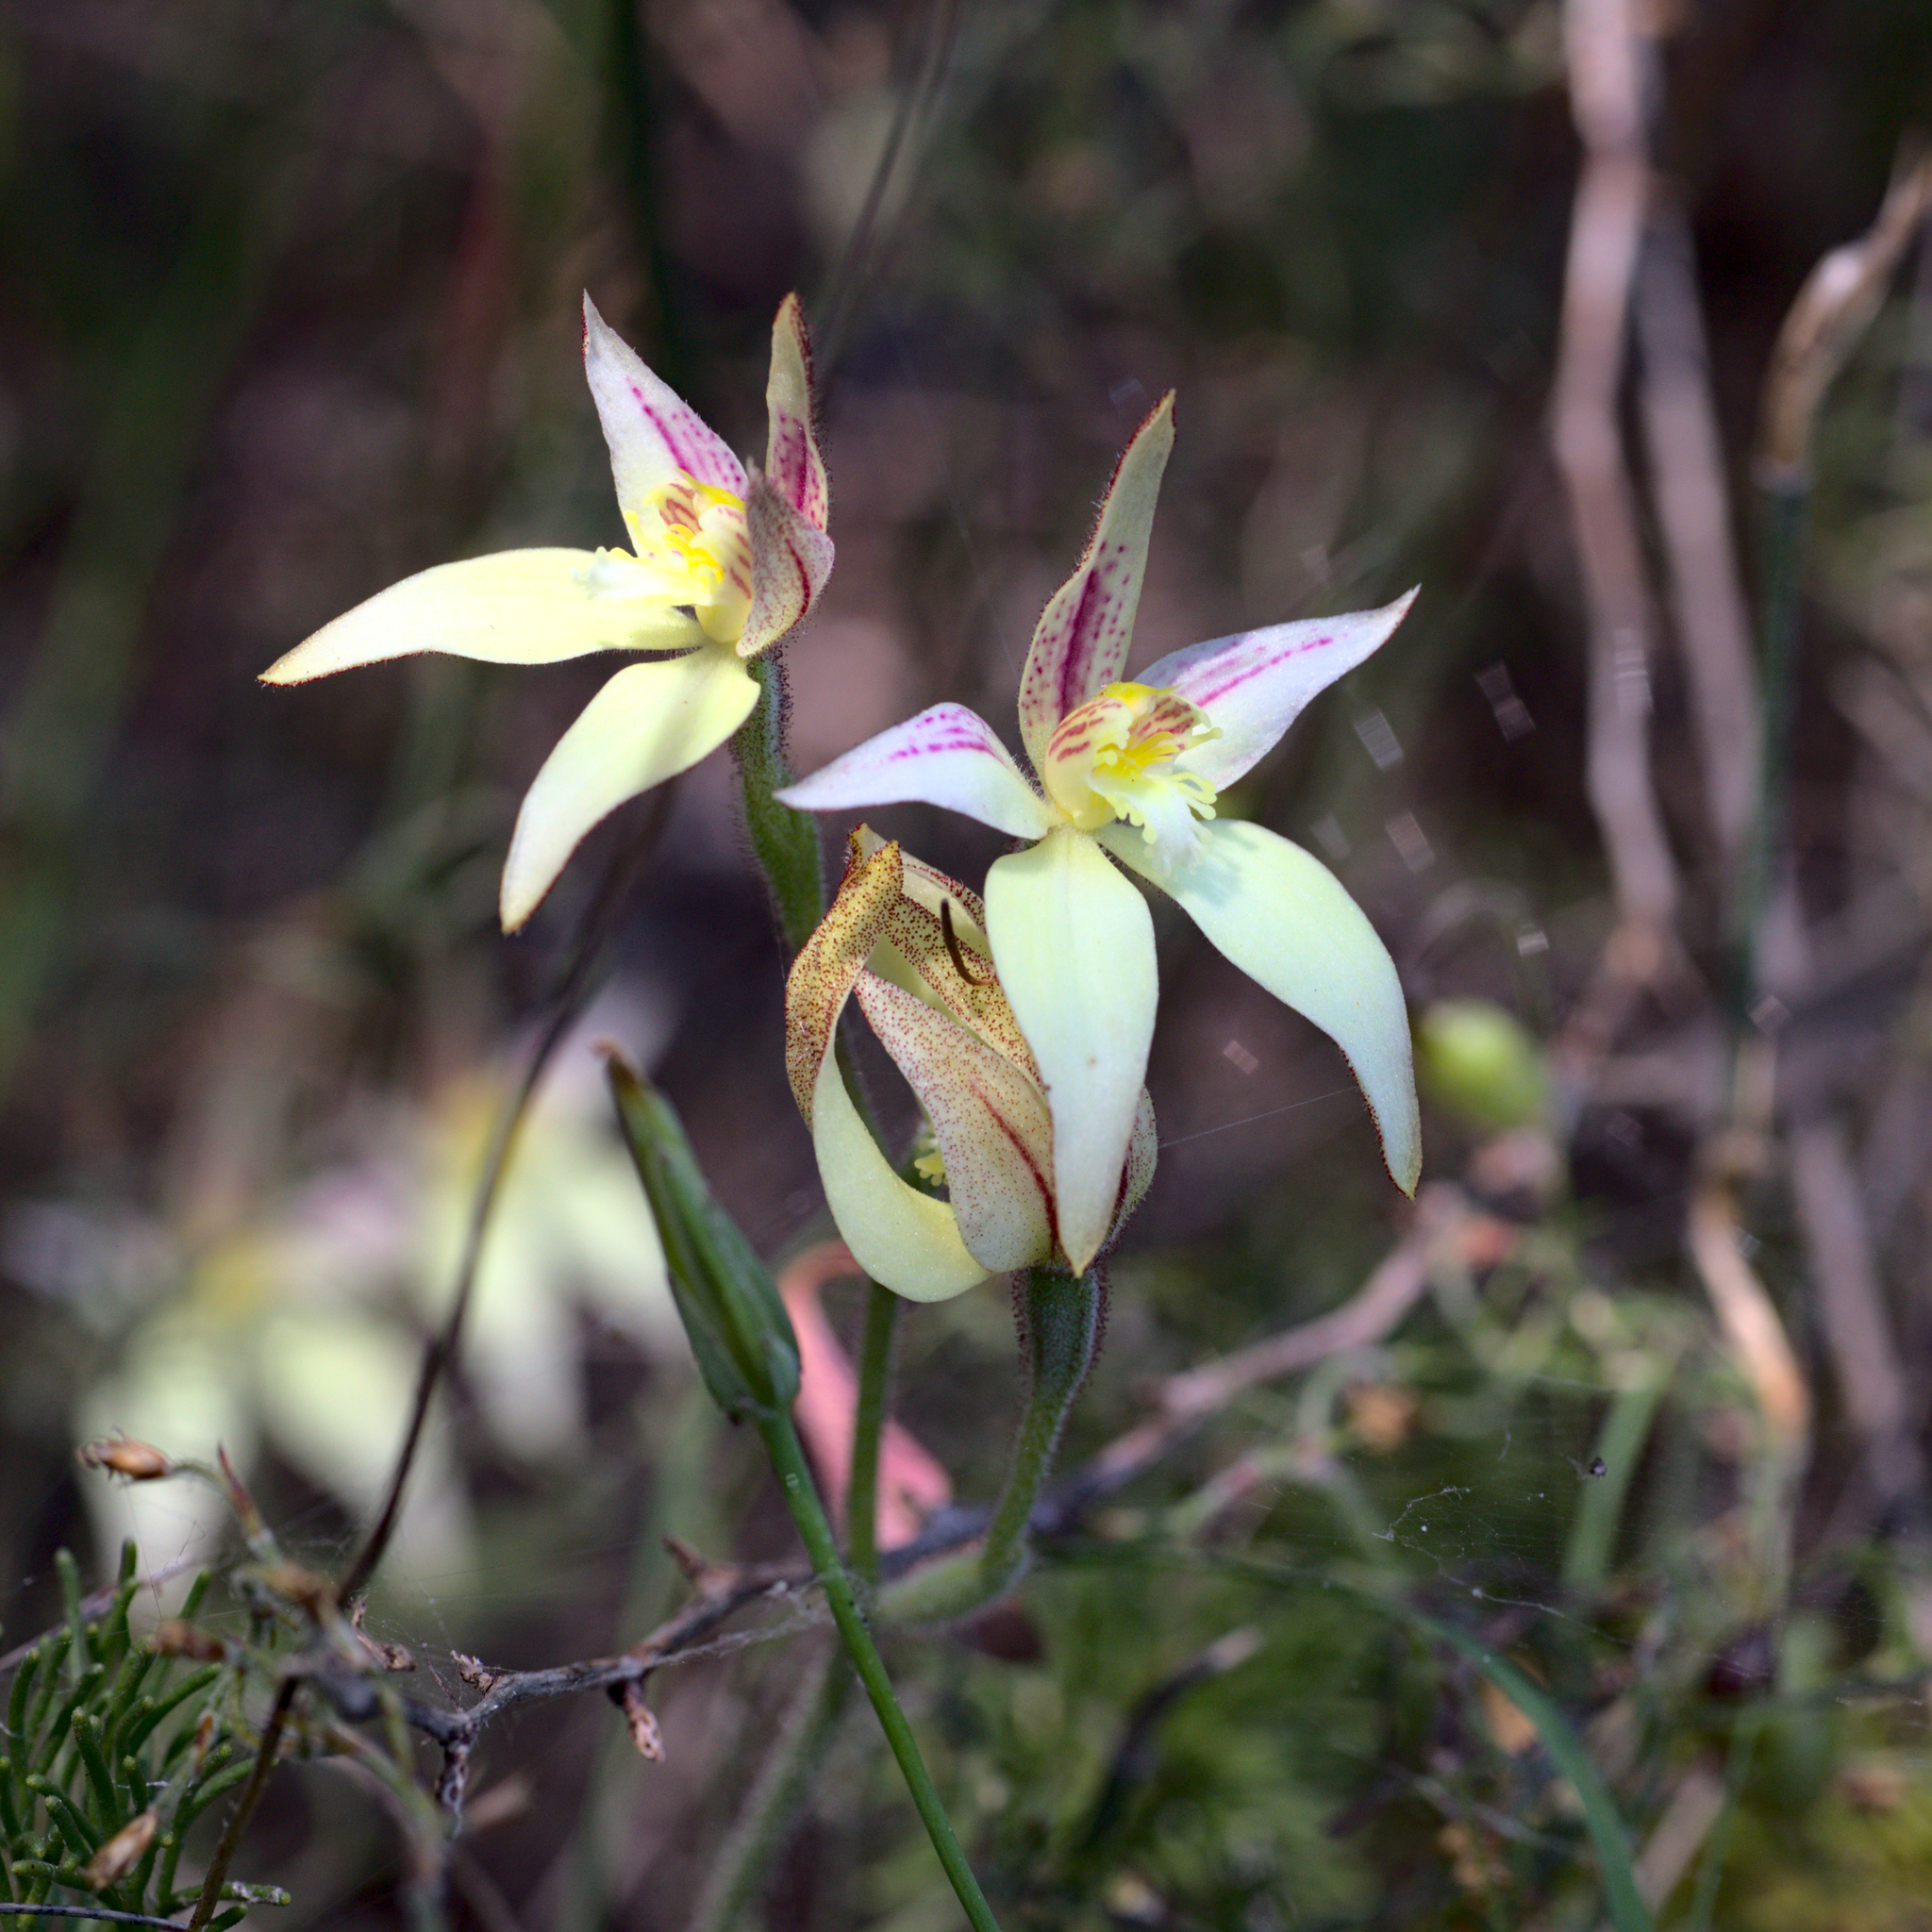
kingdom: Plantae
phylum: Tracheophyta
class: Liliopsida
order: Asparagales
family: Orchidaceae
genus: Caladenia
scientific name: Caladenia erminea
